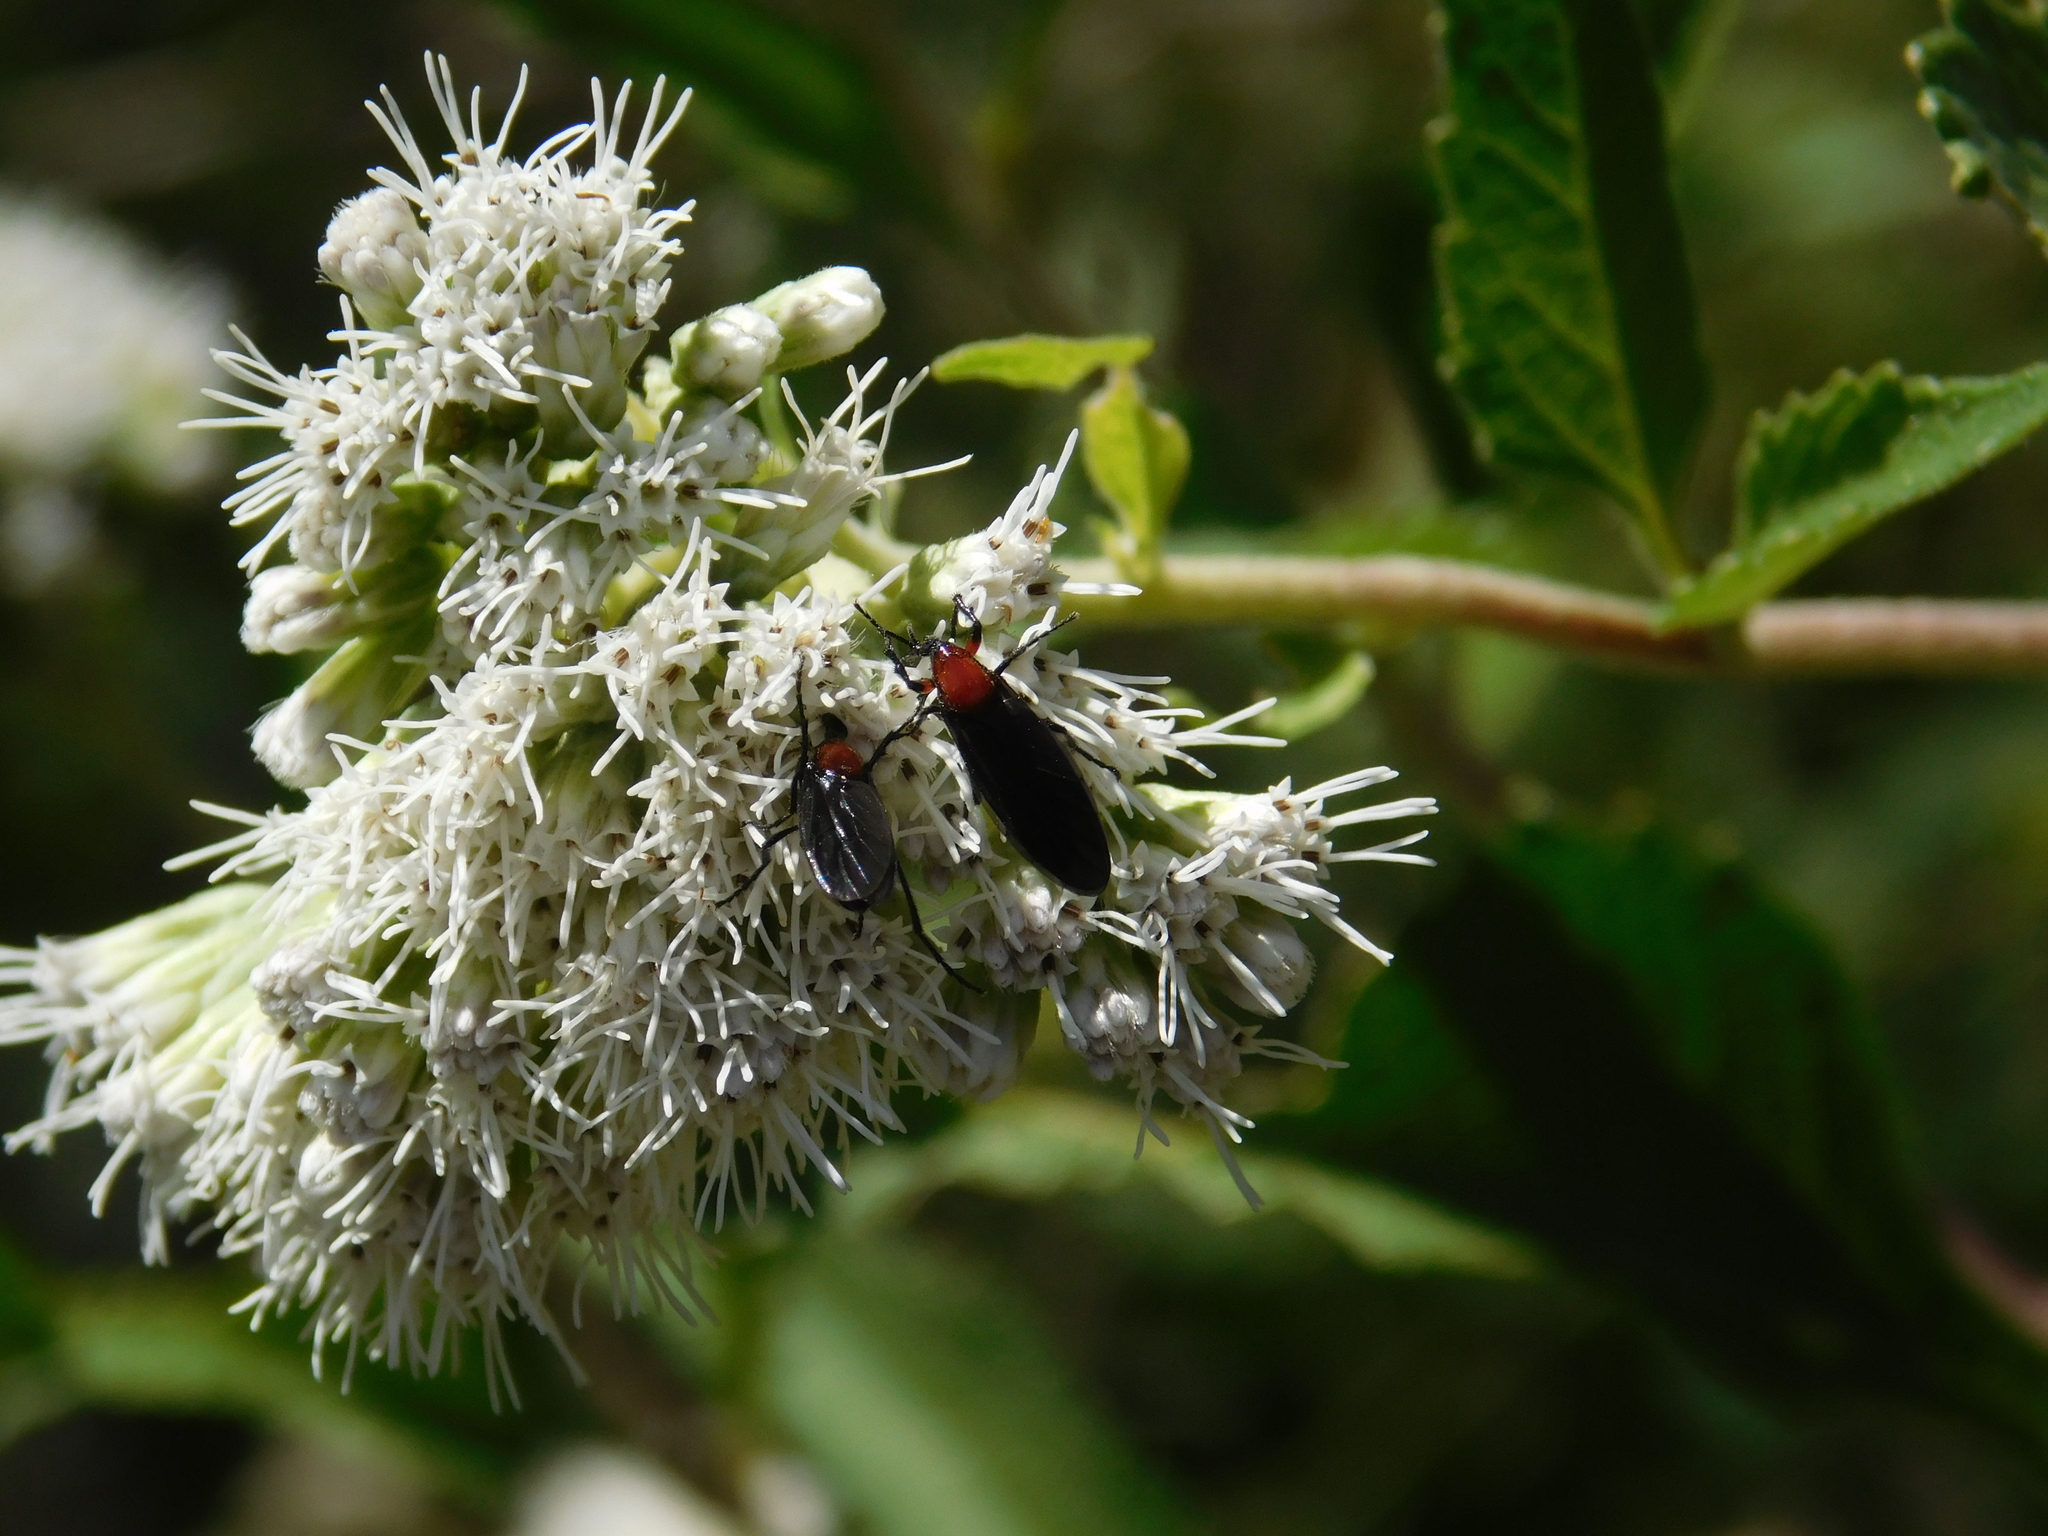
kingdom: Animalia
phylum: Arthropoda
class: Insecta
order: Diptera
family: Bibionidae
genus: Dilophus
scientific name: Dilophus pectoralis
